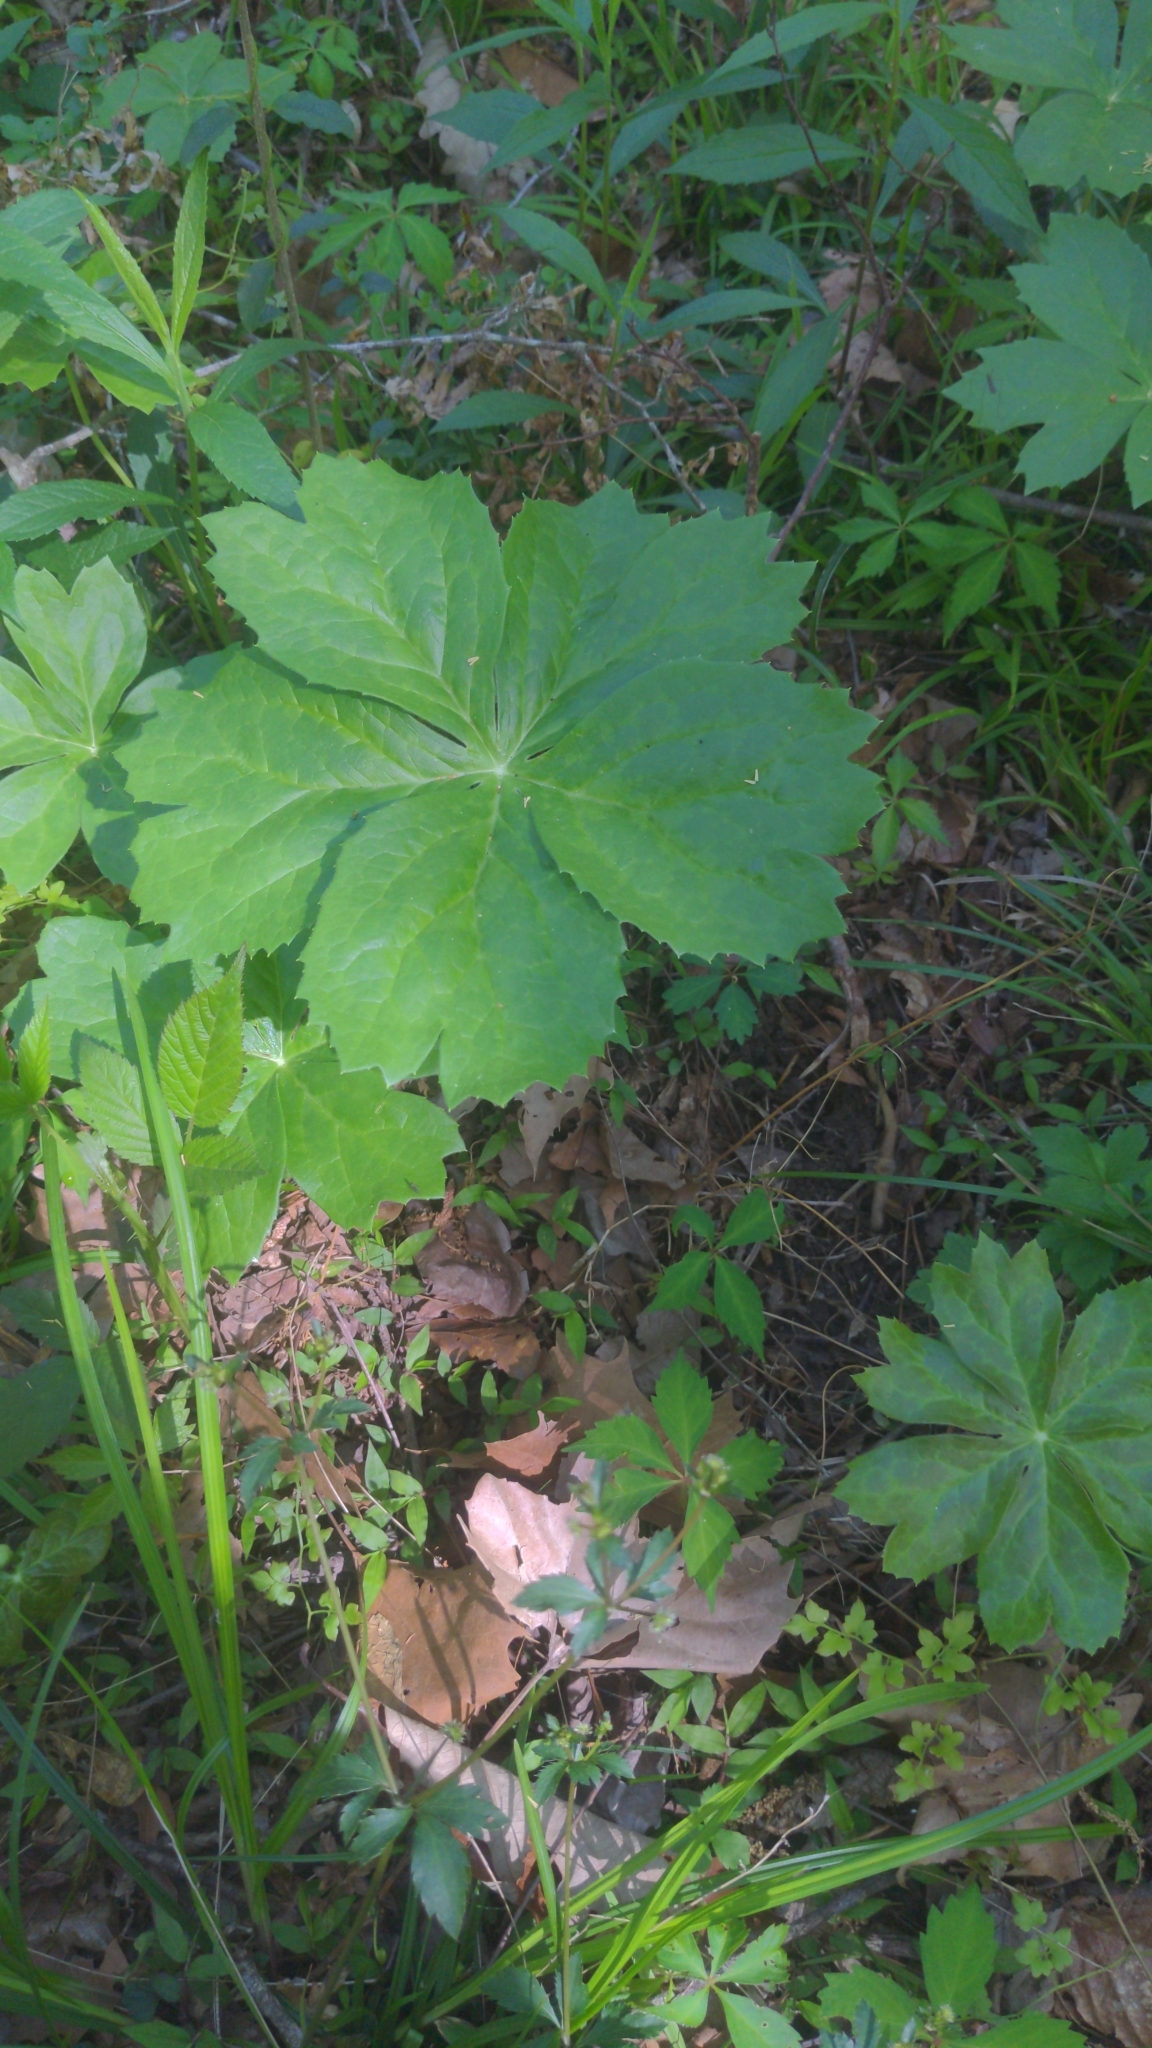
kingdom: Plantae
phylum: Tracheophyta
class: Magnoliopsida
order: Ranunculales
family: Berberidaceae
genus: Podophyllum
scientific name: Podophyllum peltatum
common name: Wild mandrake
